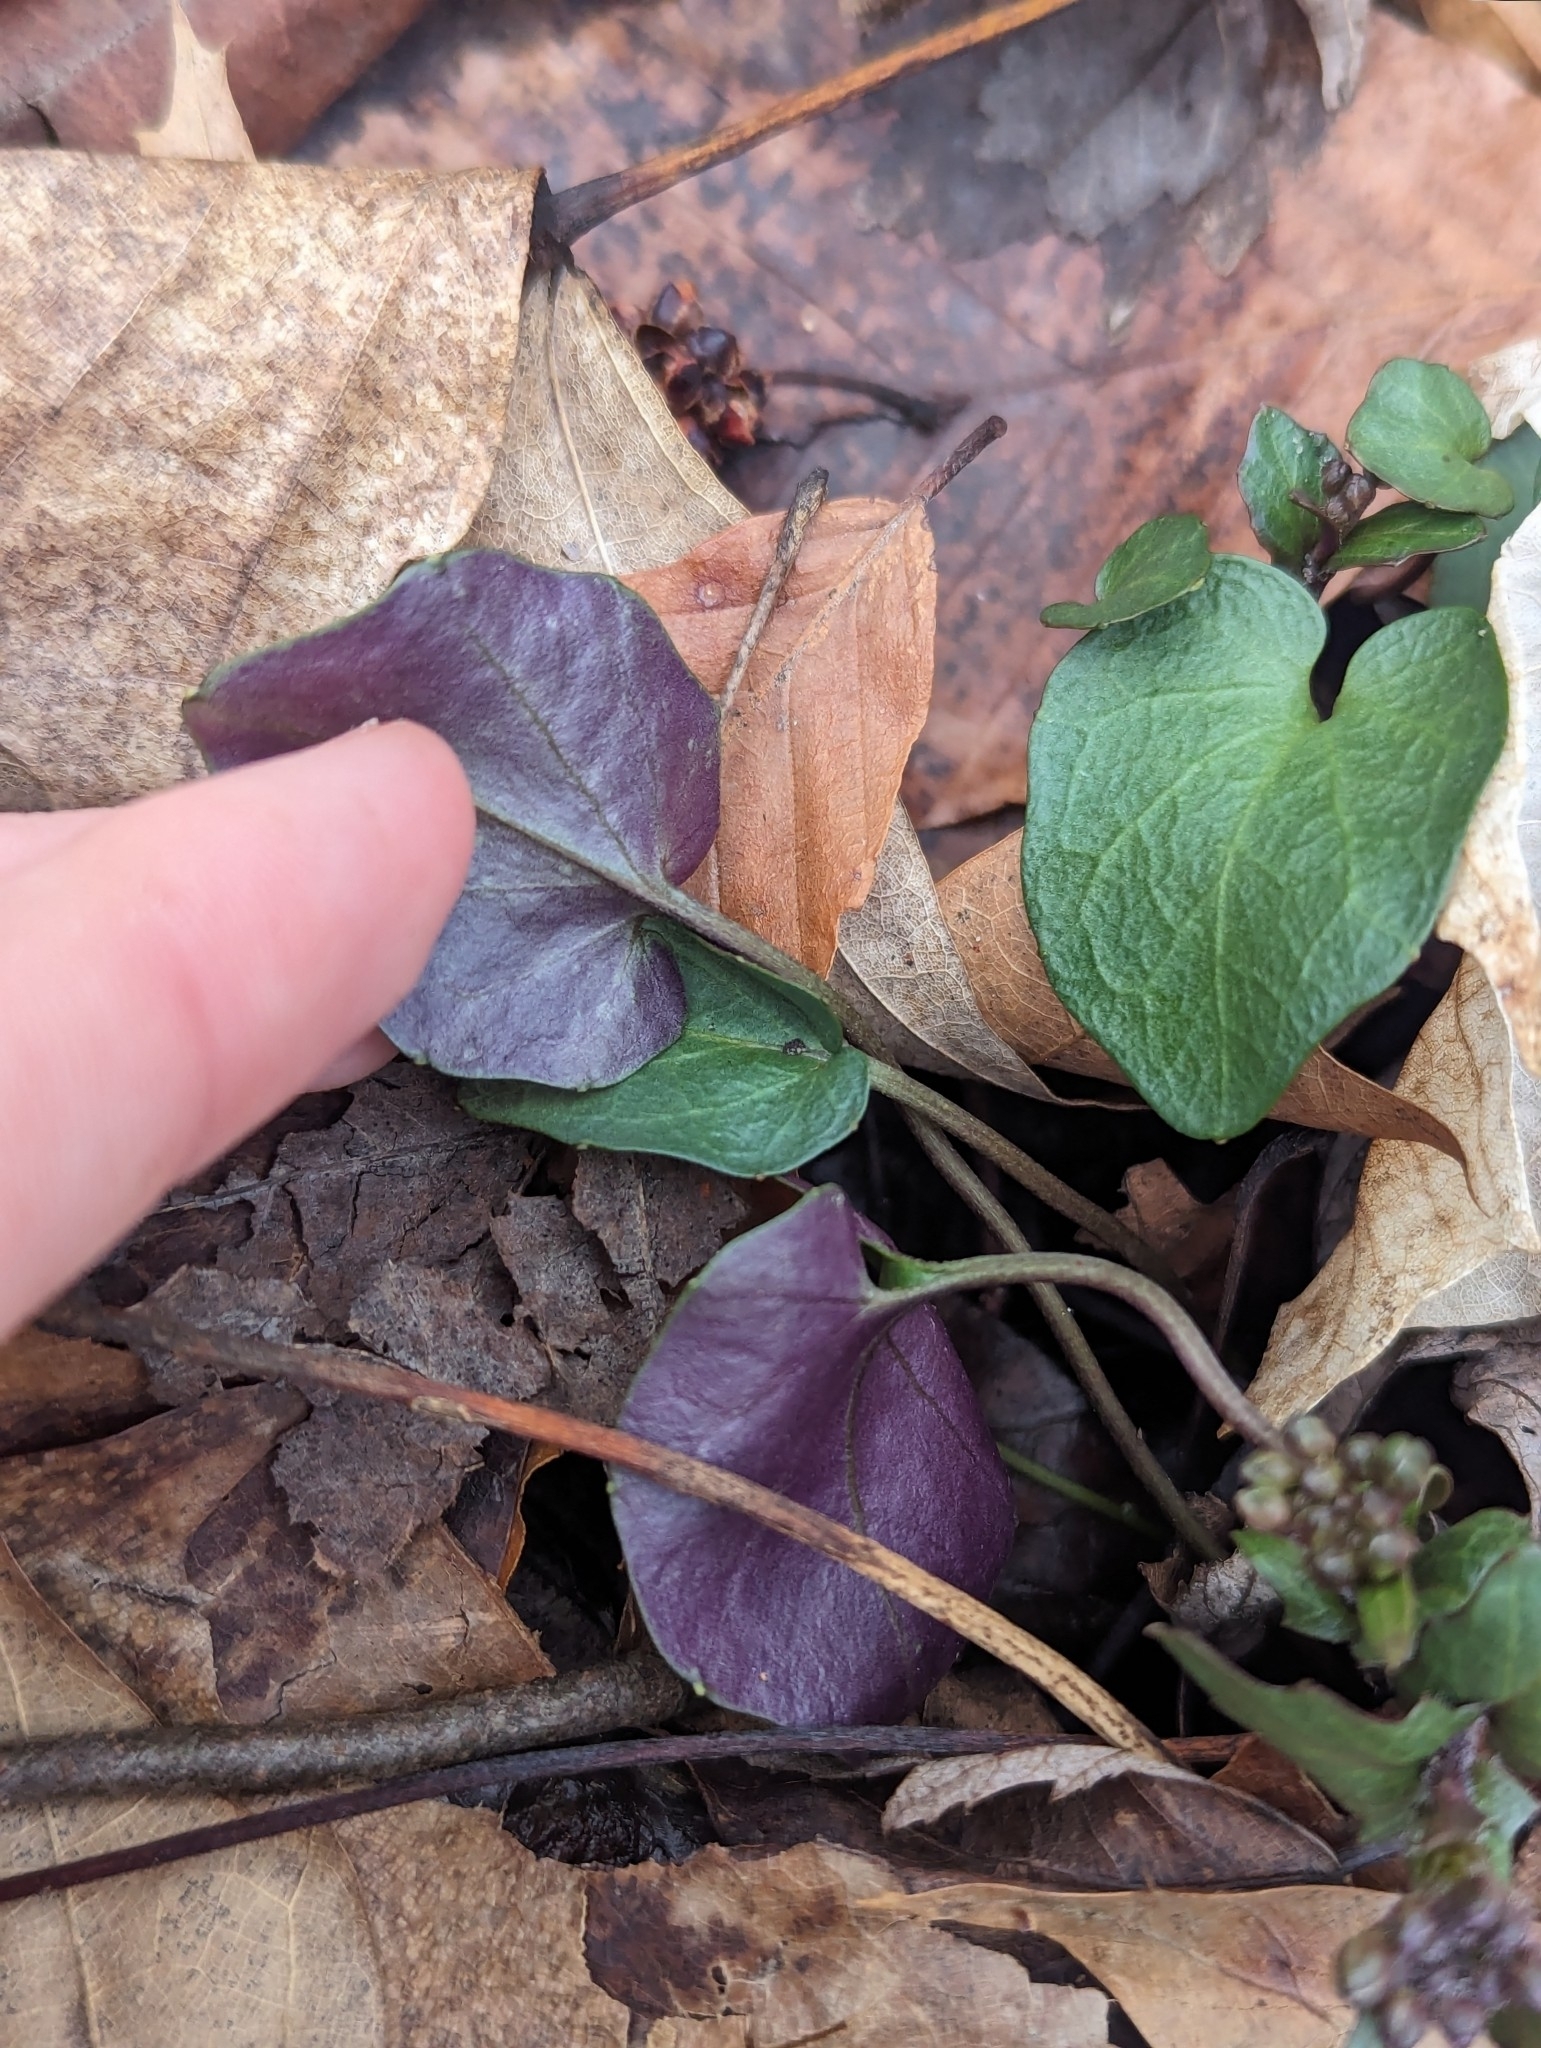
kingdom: Plantae
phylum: Tracheophyta
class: Magnoliopsida
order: Brassicales
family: Brassicaceae
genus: Cardamine
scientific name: Cardamine douglassii
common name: Purple cress
